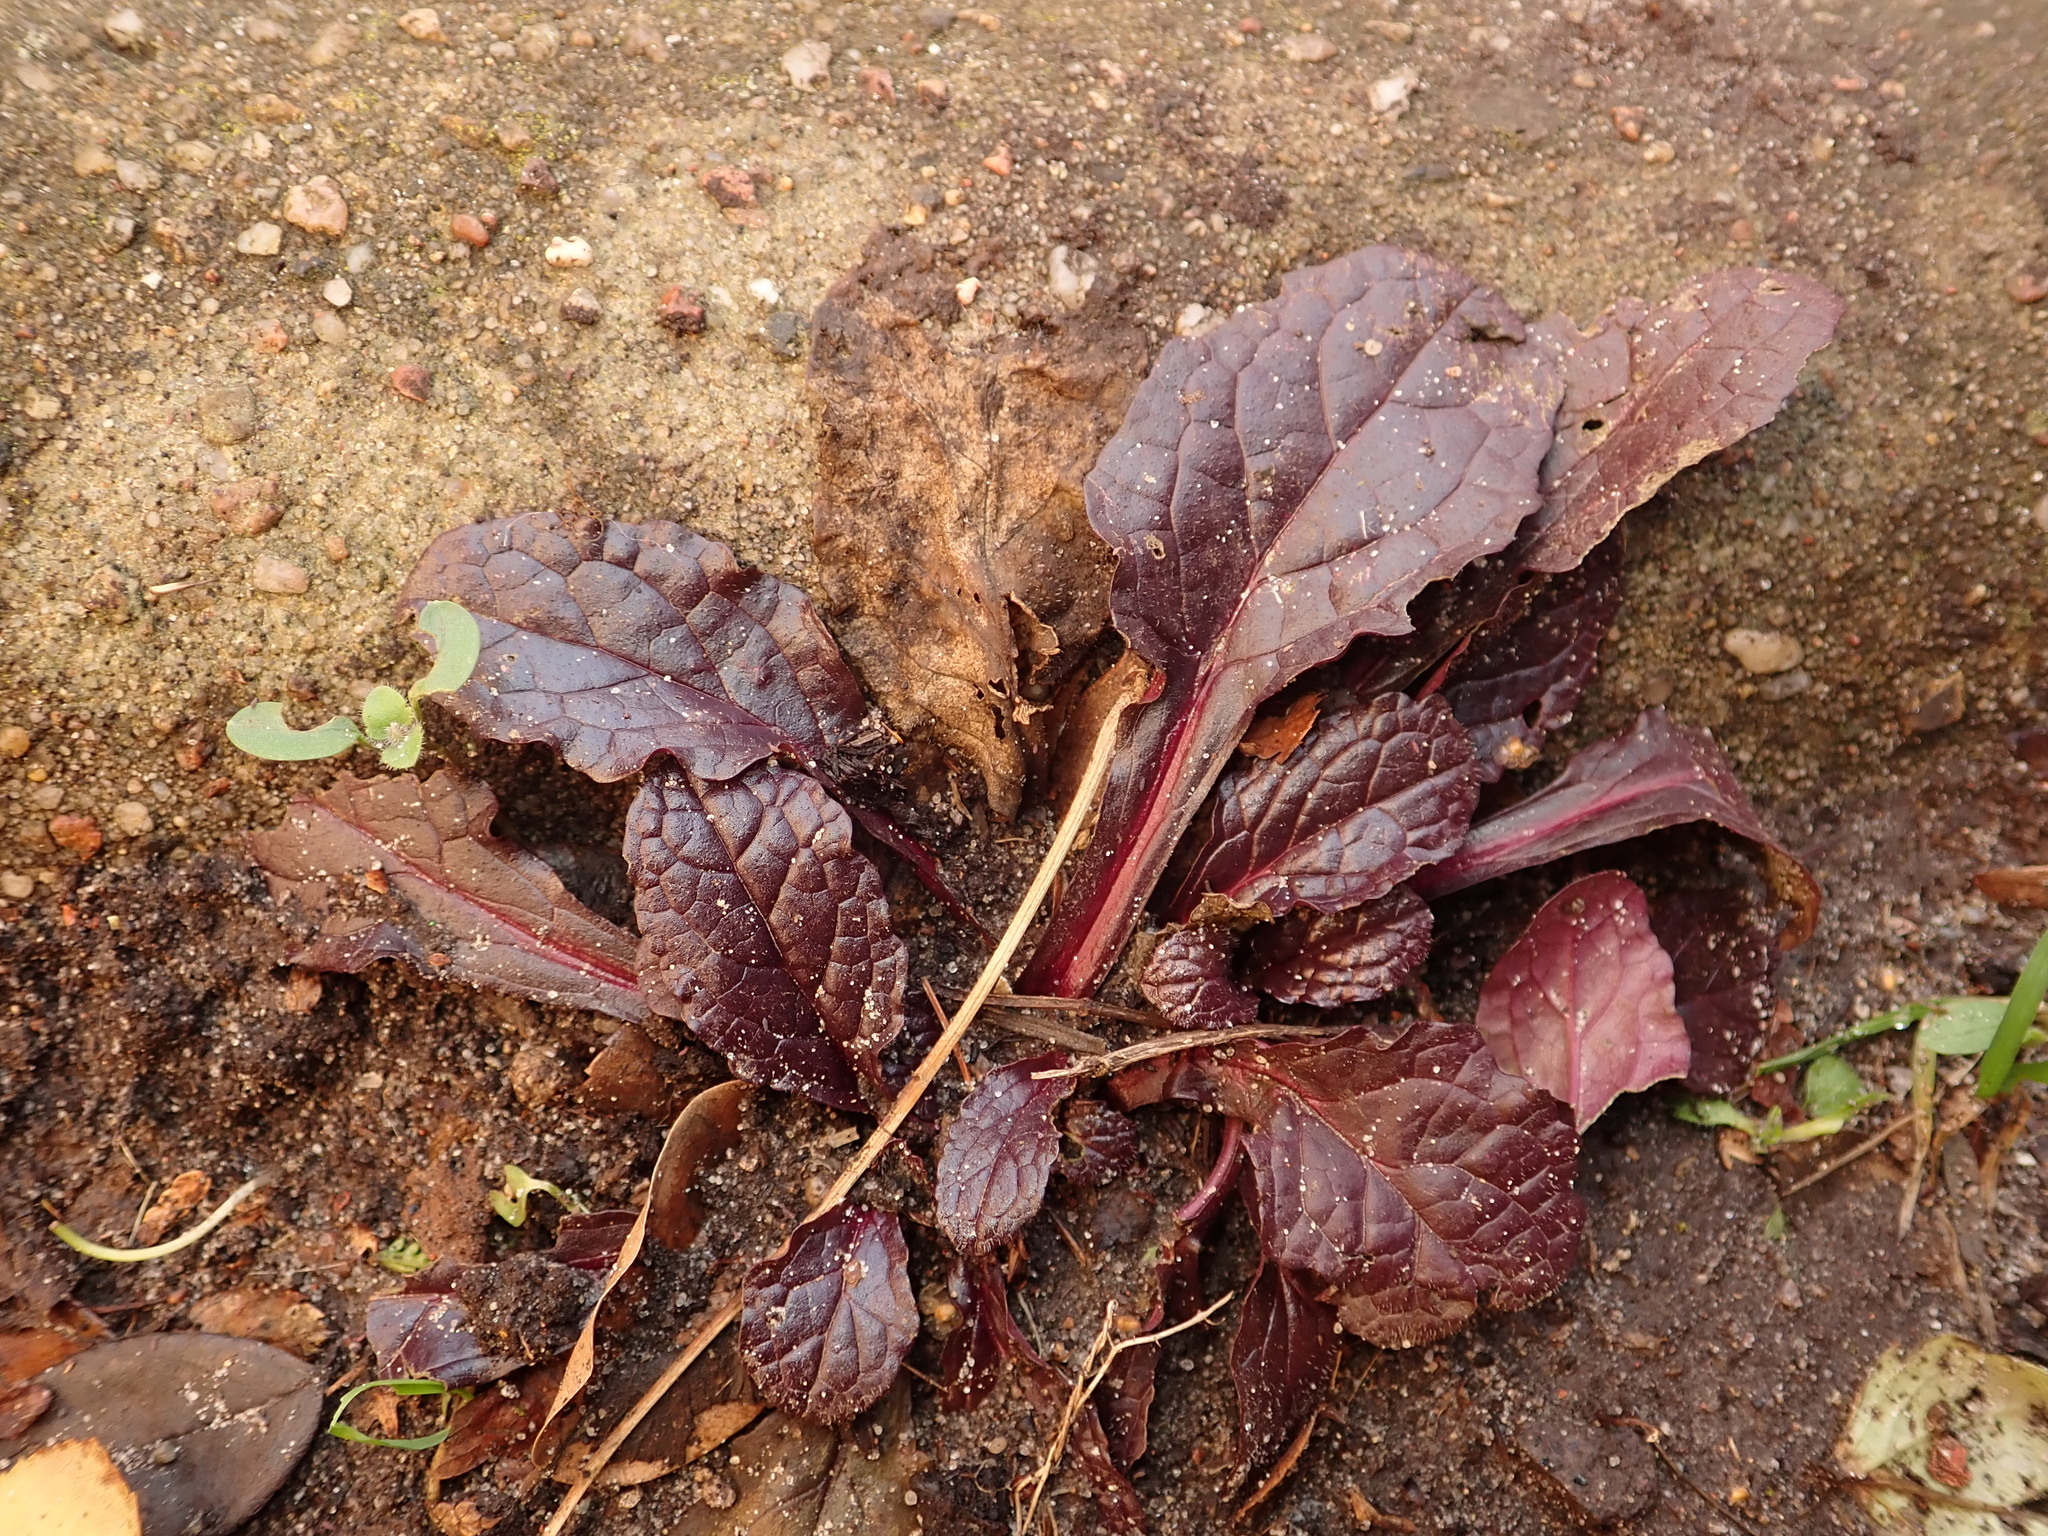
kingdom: Plantae
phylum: Tracheophyta
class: Magnoliopsida
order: Lamiales
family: Lamiaceae
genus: Ajuga
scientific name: Ajuga reptans
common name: Bugle
